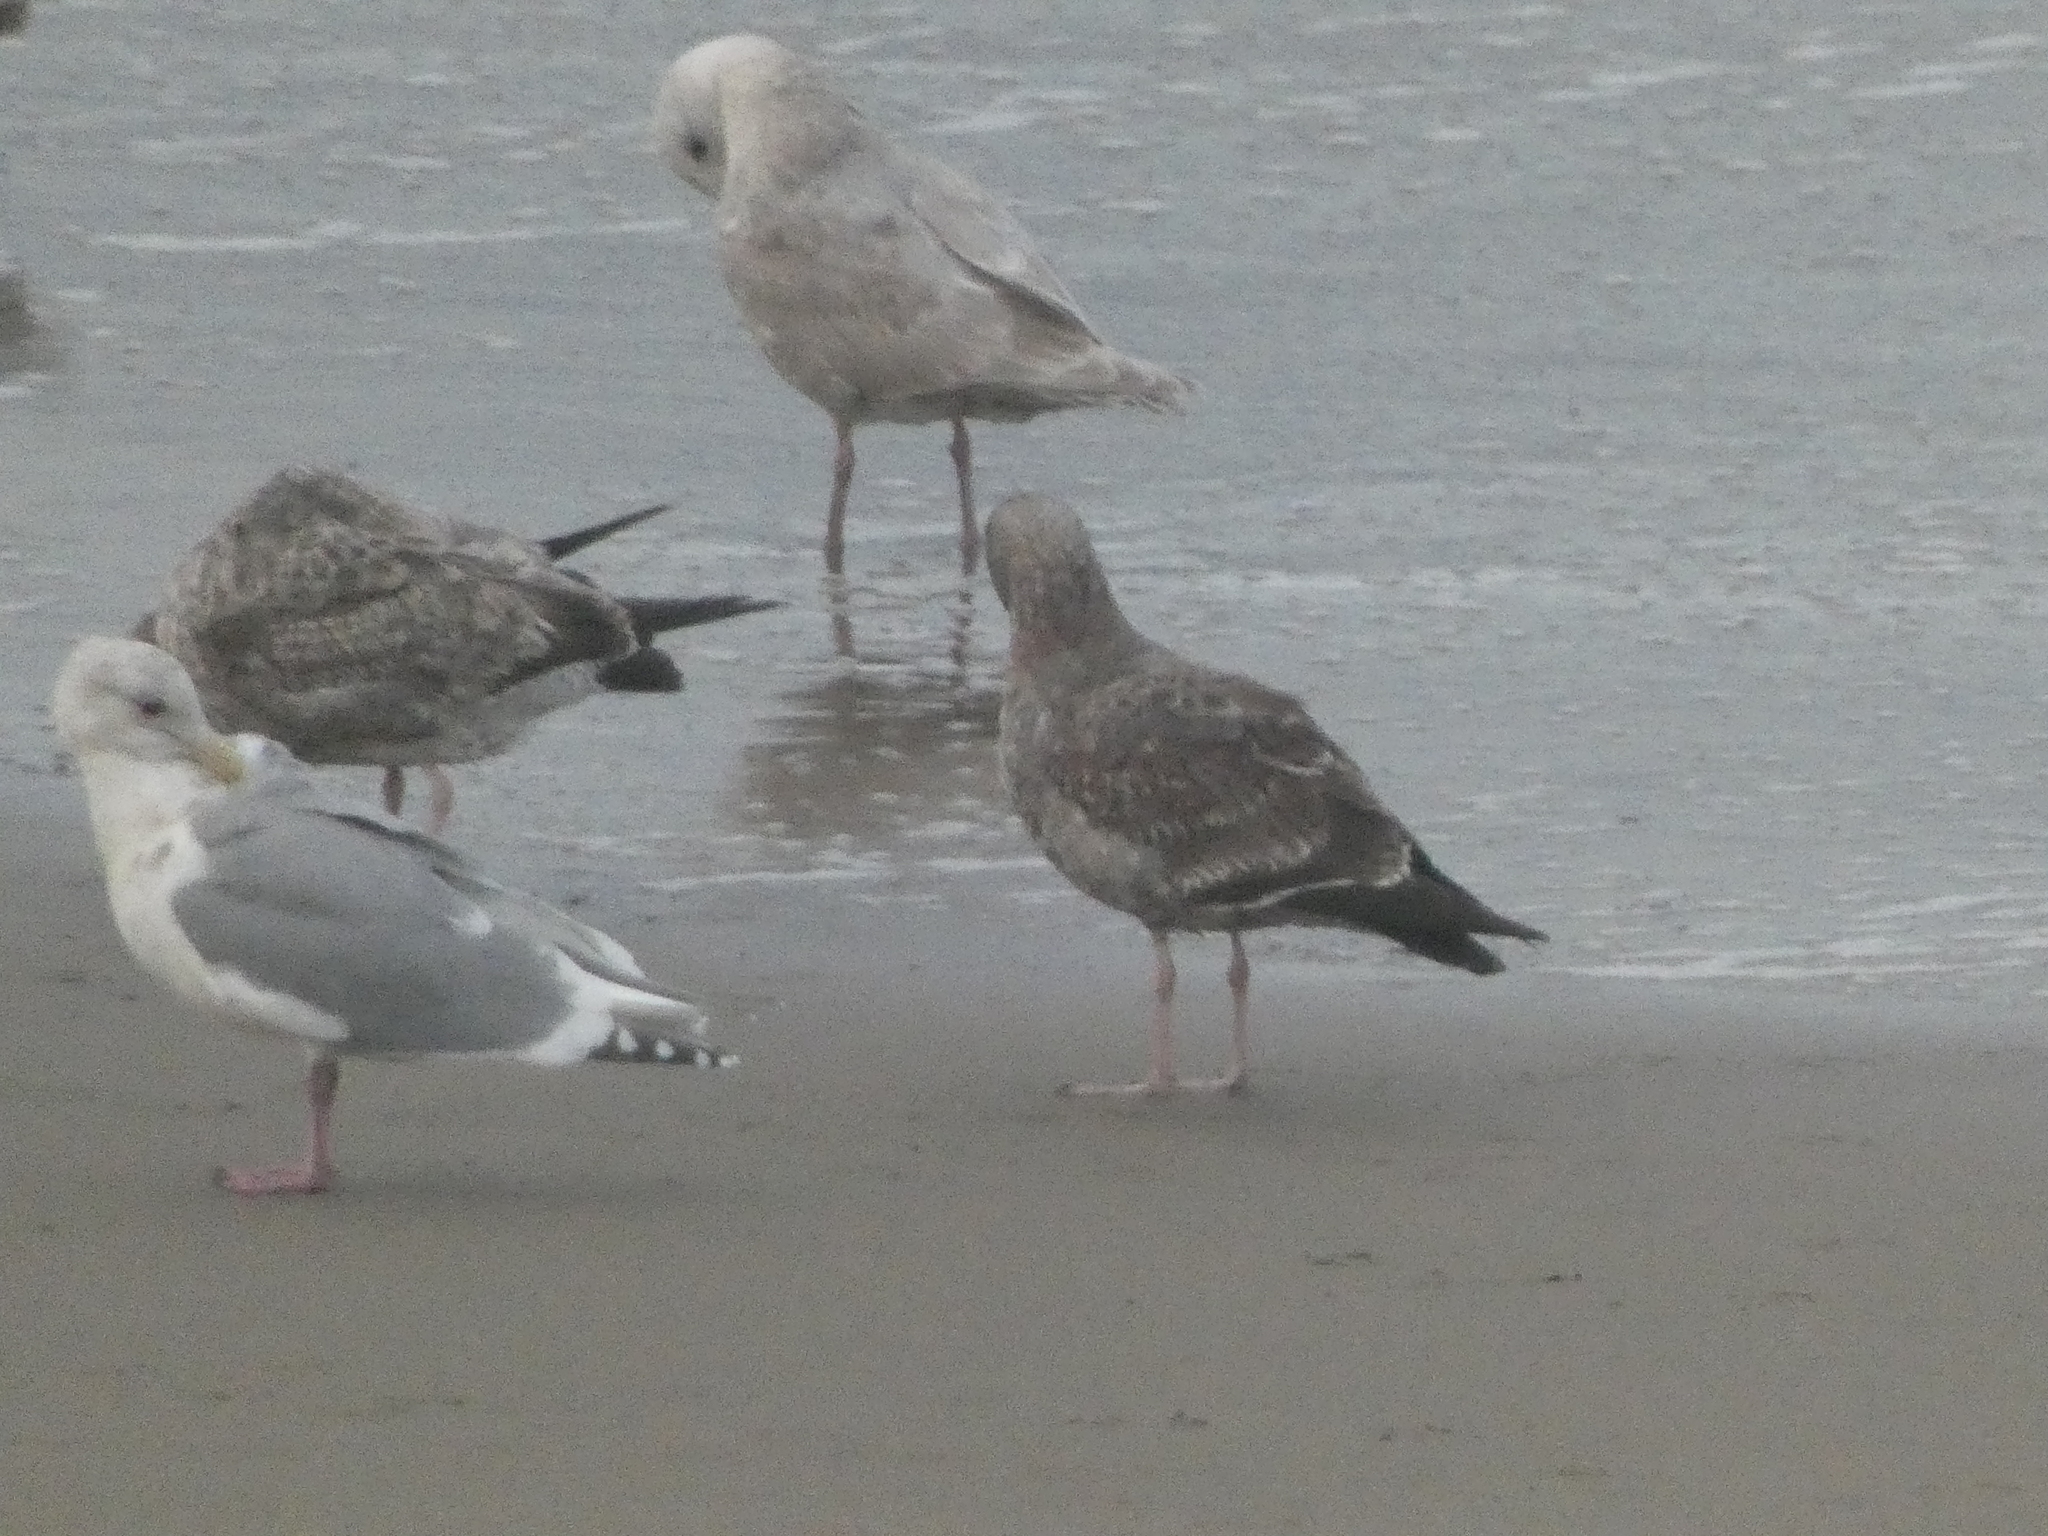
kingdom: Animalia
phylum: Chordata
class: Aves
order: Charadriiformes
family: Laridae
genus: Larus
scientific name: Larus glaucescens
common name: Glaucous-winged gull
